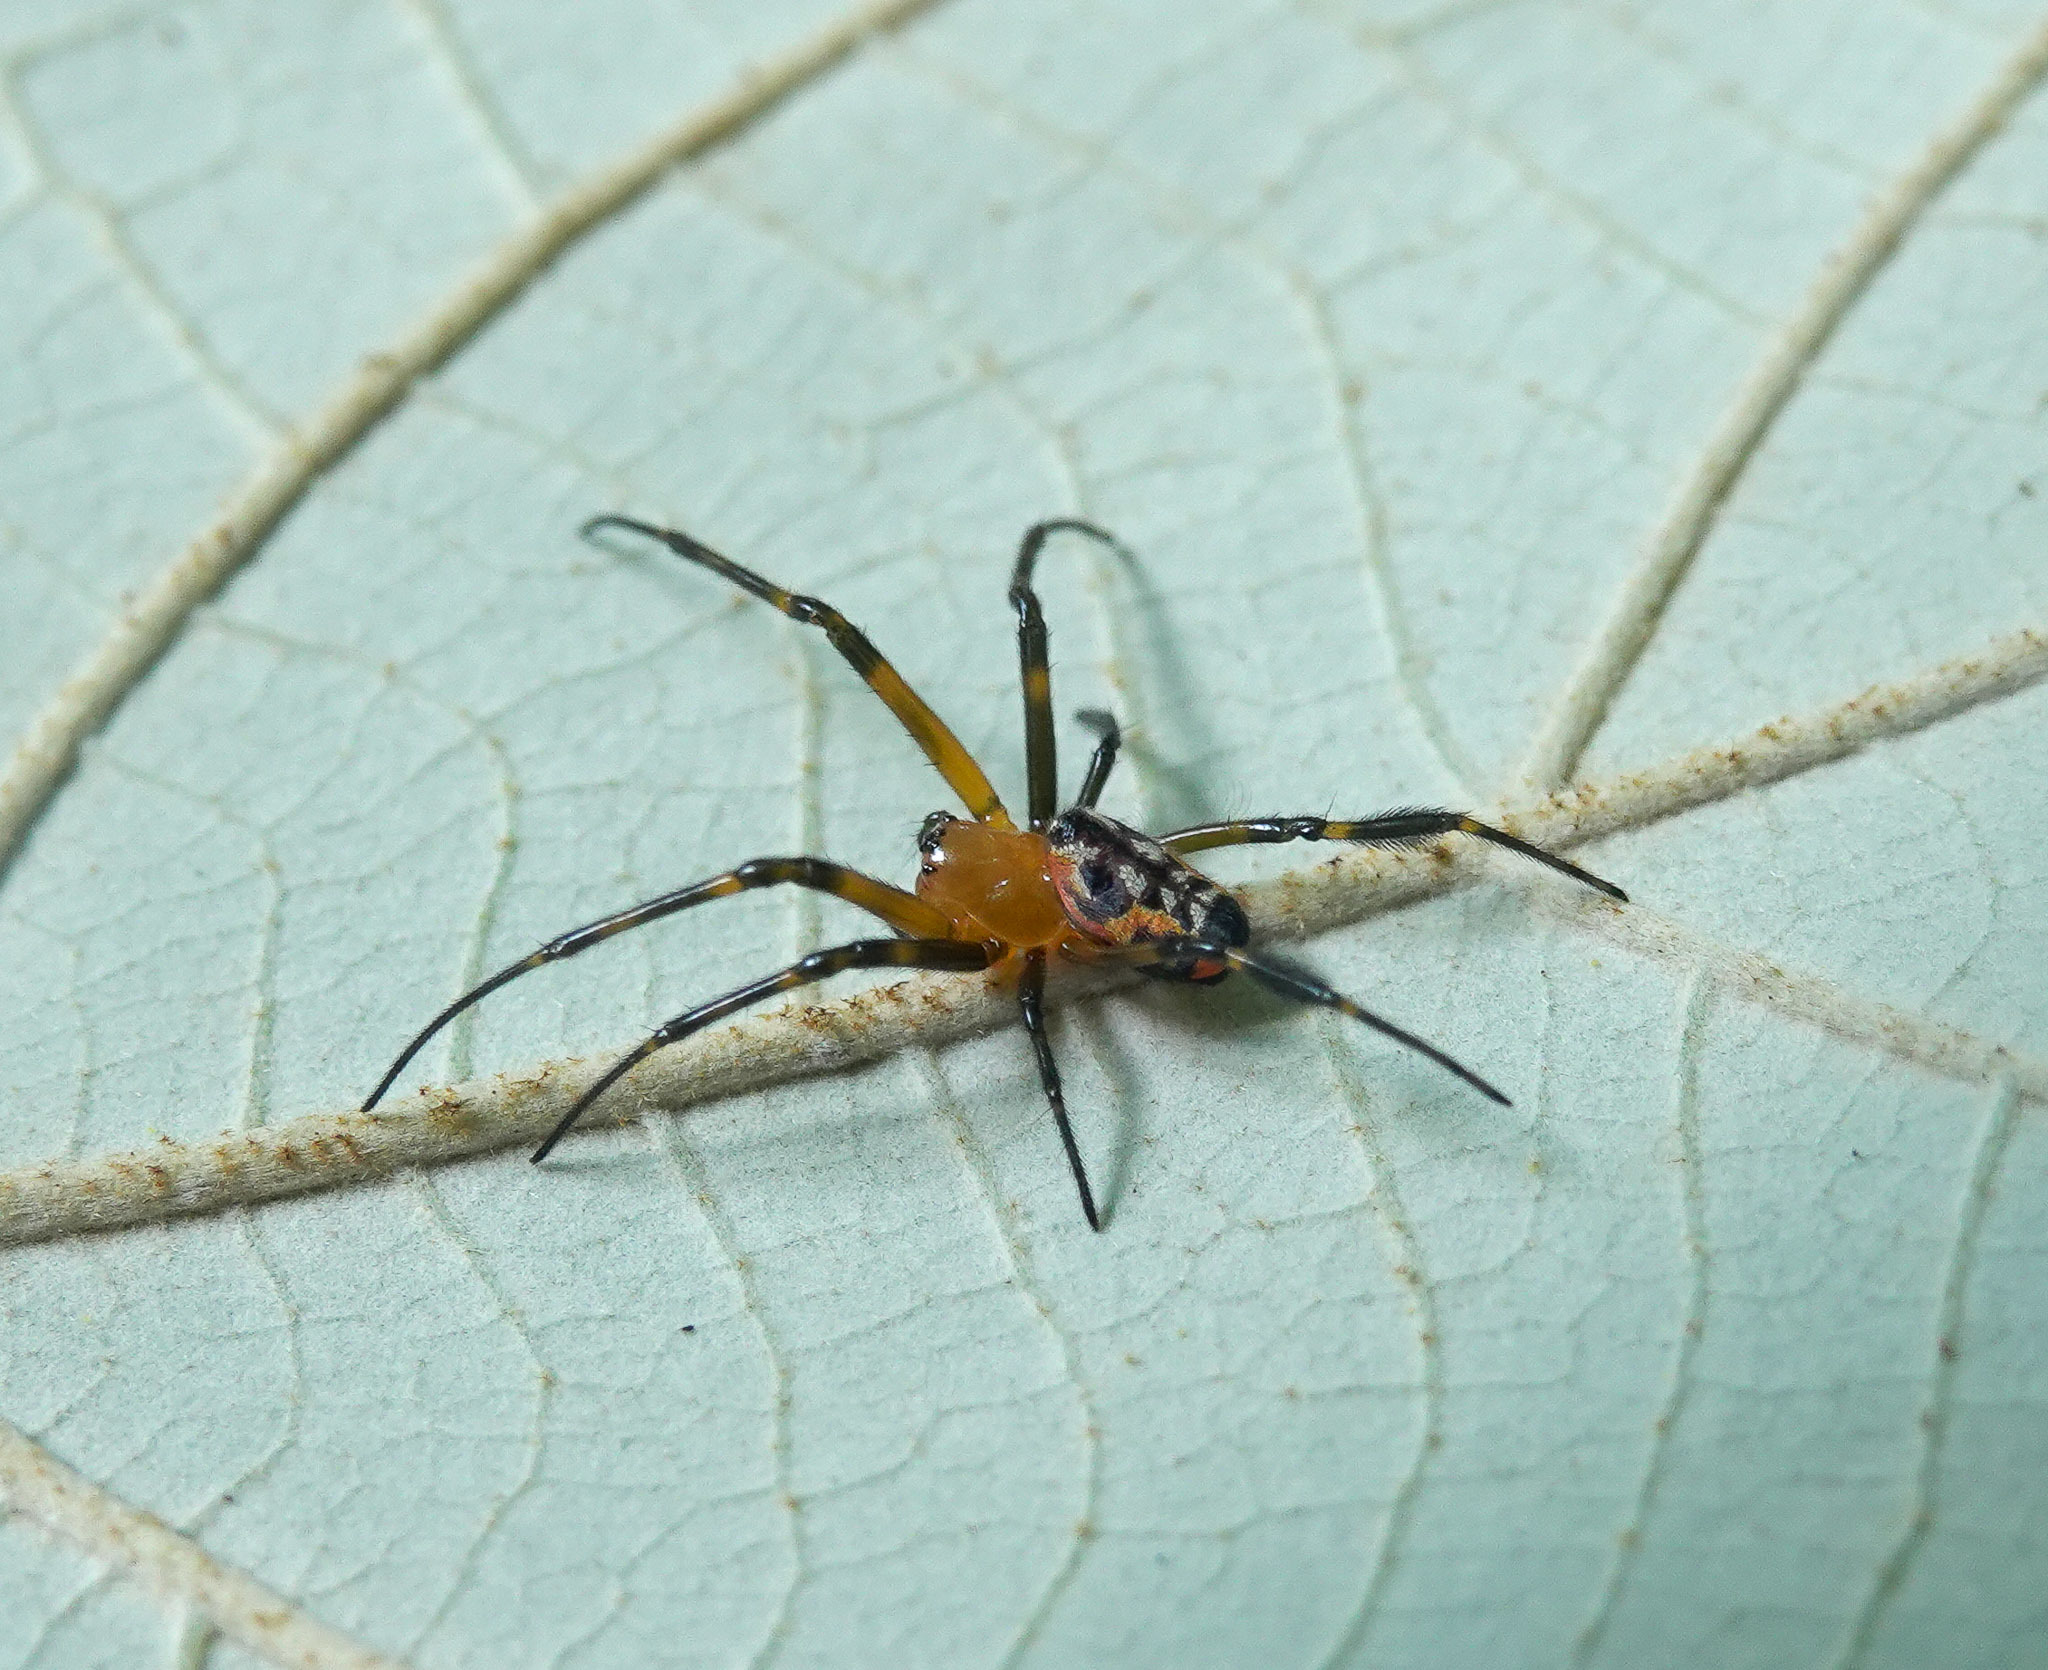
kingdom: Animalia
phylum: Arthropoda
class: Arachnida
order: Araneae
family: Tetragnathidae
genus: Leucauge
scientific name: Leucauge fastigata
